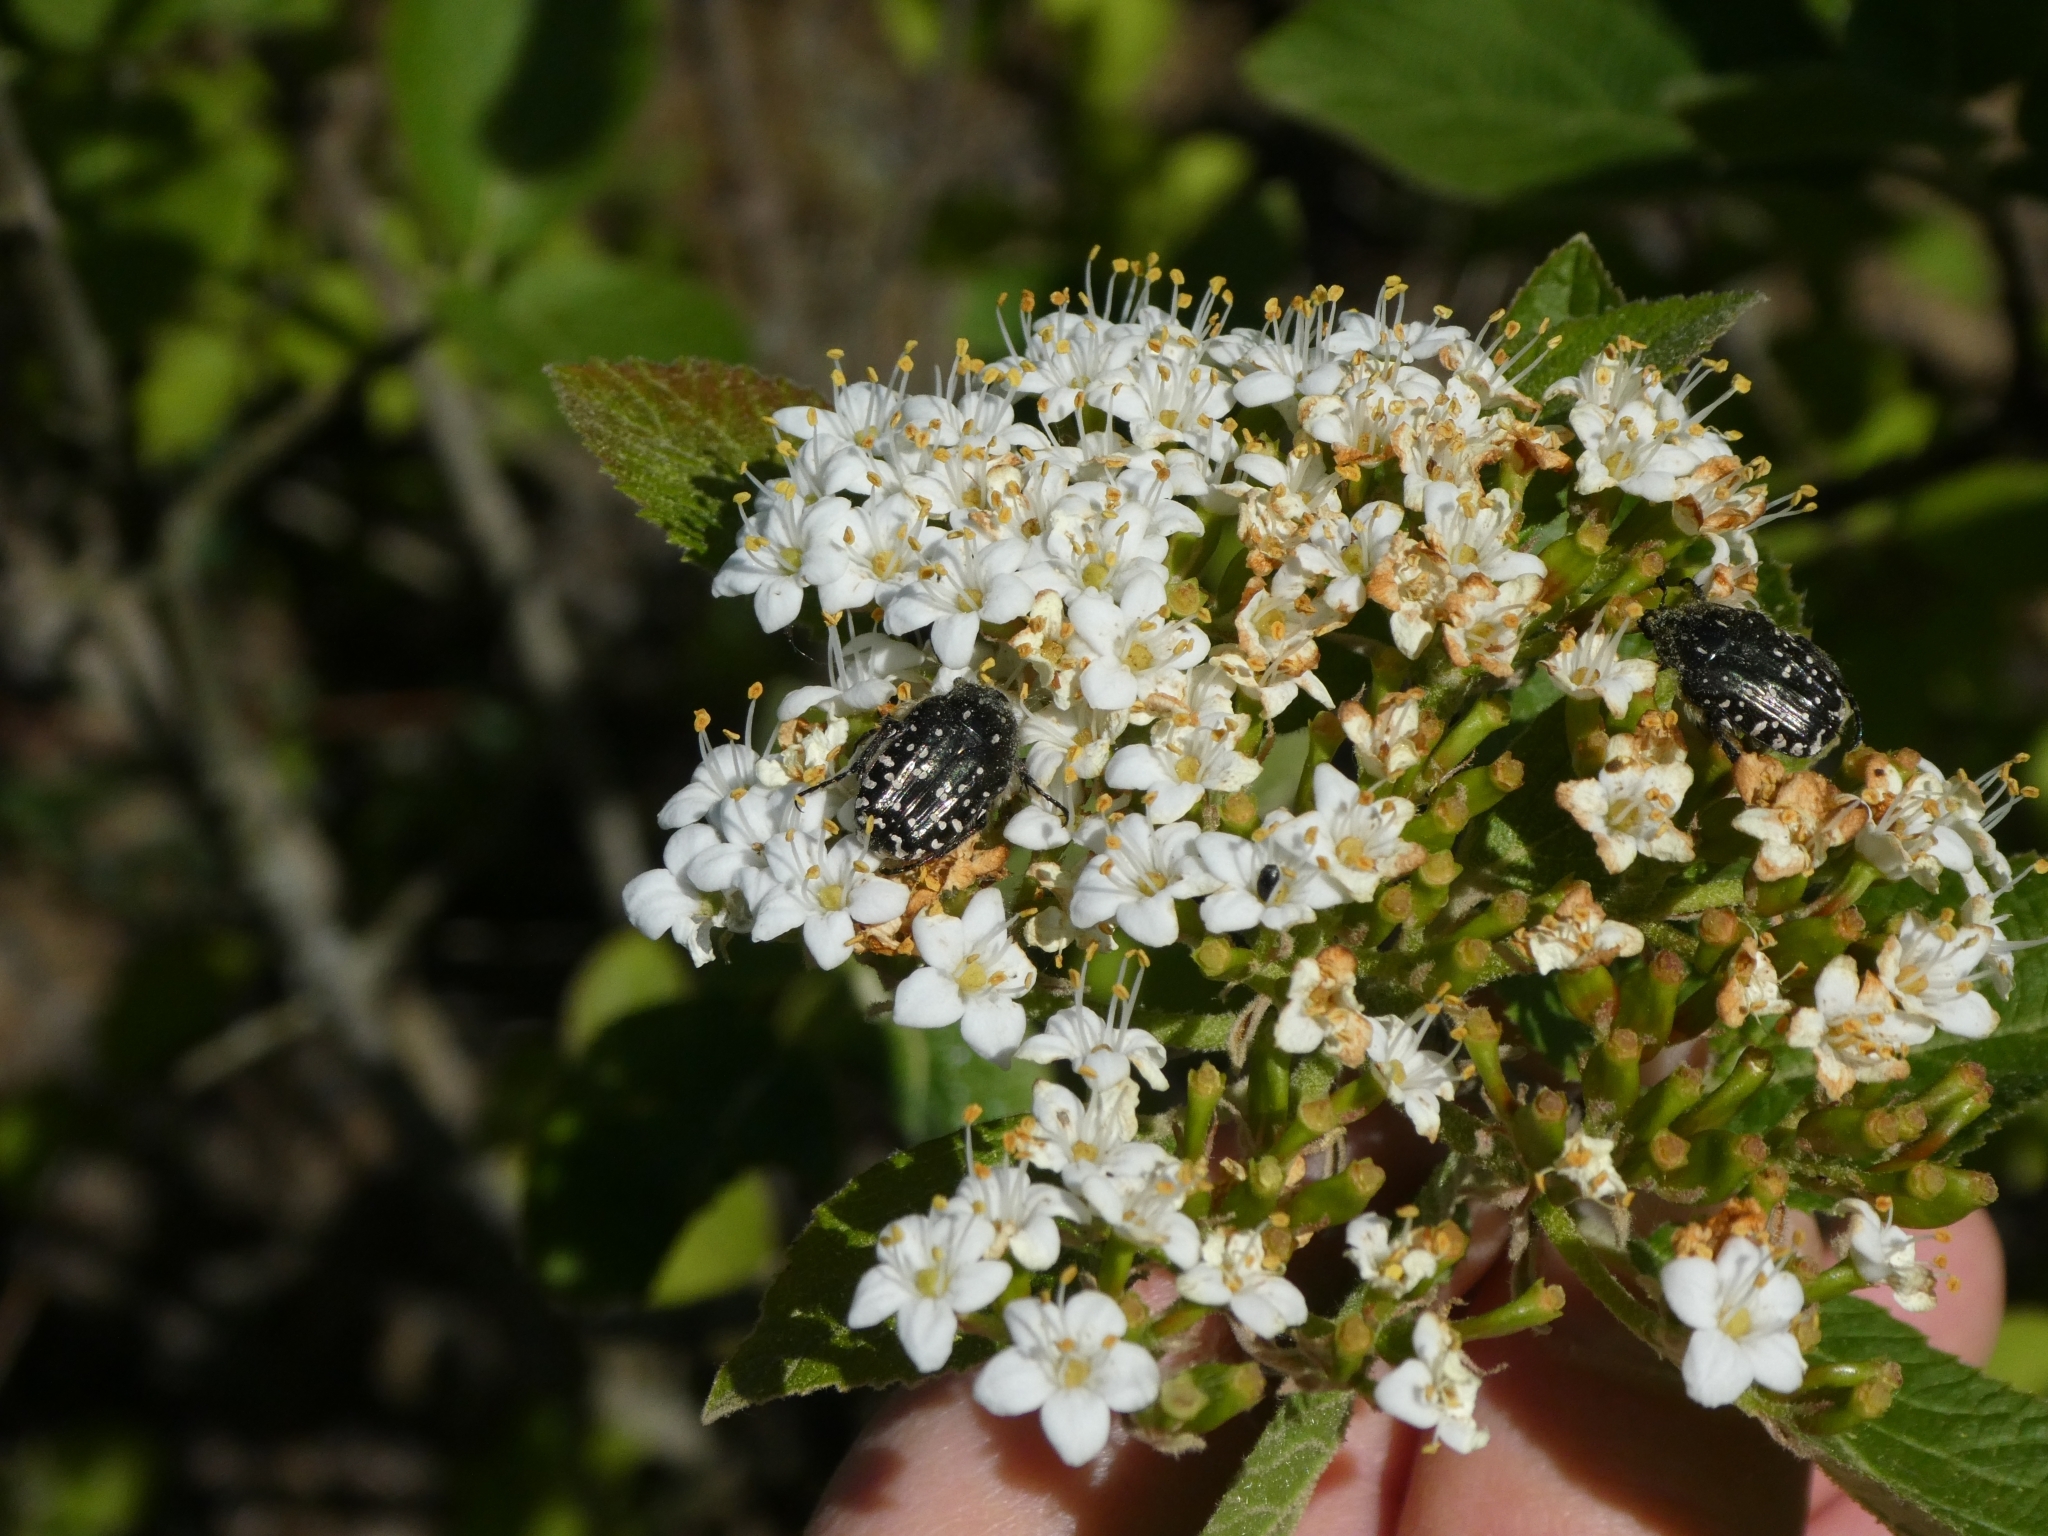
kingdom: Animalia
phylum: Arthropoda
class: Insecta
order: Coleoptera
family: Scarabaeidae
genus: Oxythyrea
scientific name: Oxythyrea funesta
